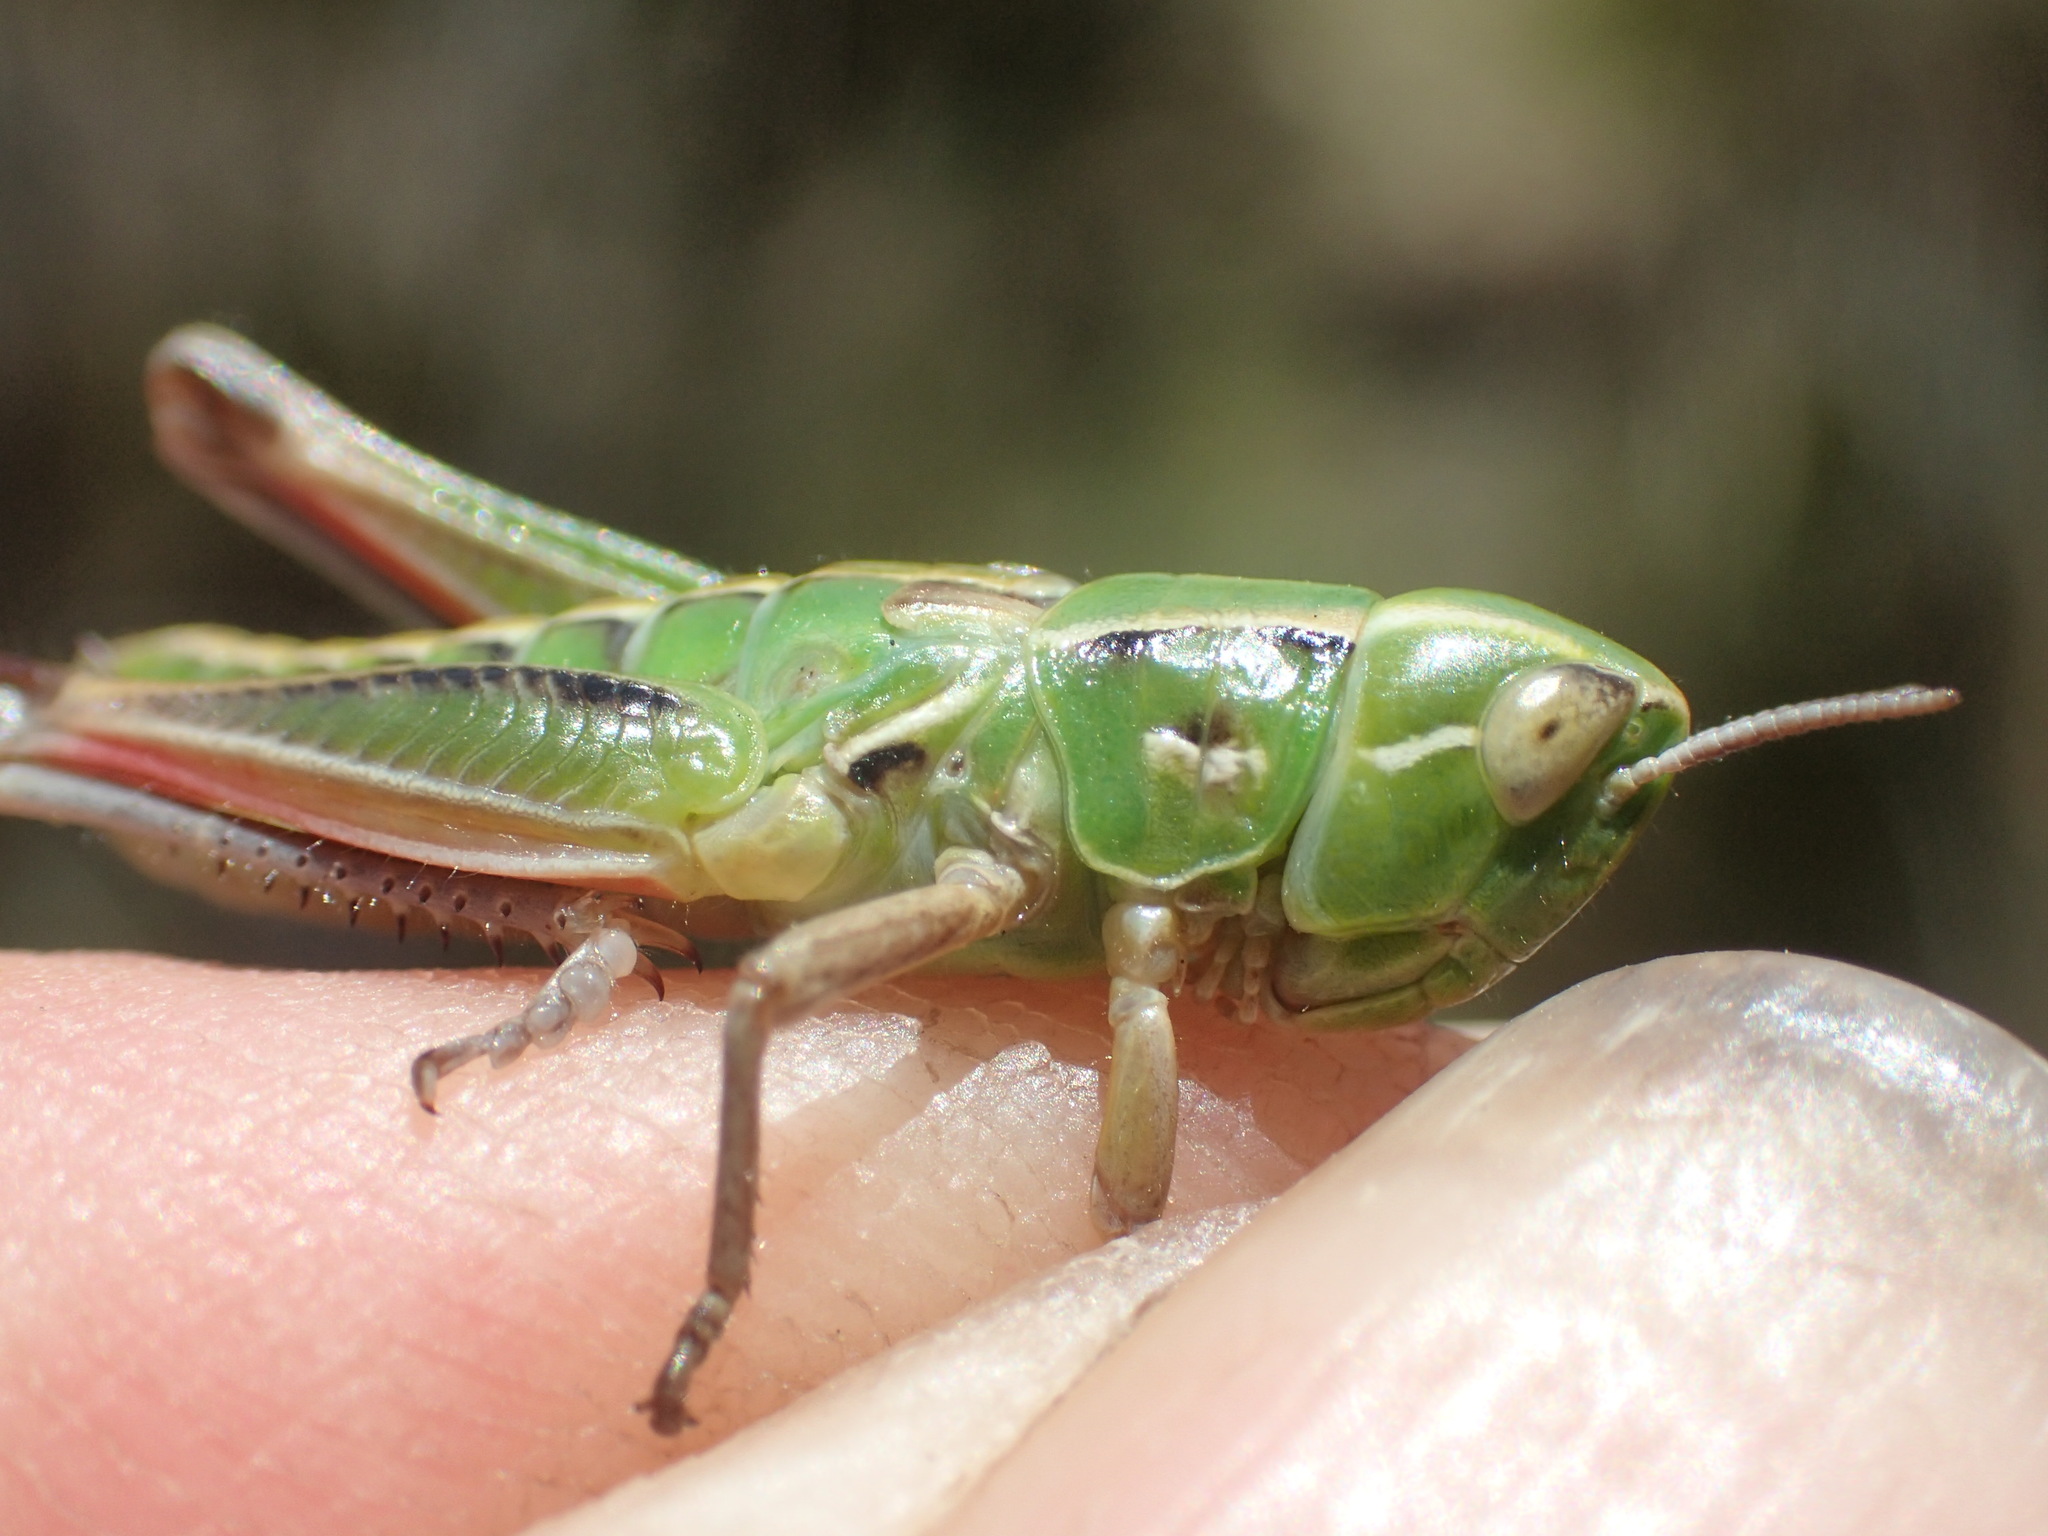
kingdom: Animalia
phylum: Arthropoda
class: Insecta
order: Orthoptera
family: Acrididae
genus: Kosciuscola
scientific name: Kosciuscola tasmanicus
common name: Tasmanian skyhopper
